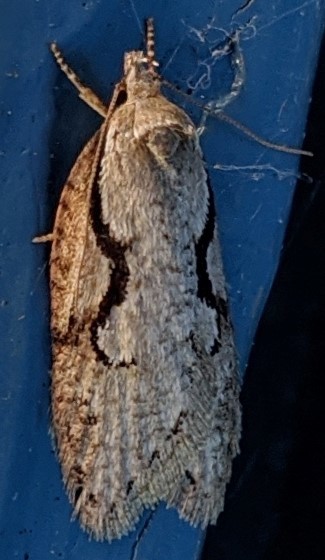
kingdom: Animalia
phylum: Arthropoda
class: Insecta
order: Lepidoptera
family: Depressariidae
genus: Semioscopis
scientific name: Semioscopis packardella
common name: Packard's concealer moth
